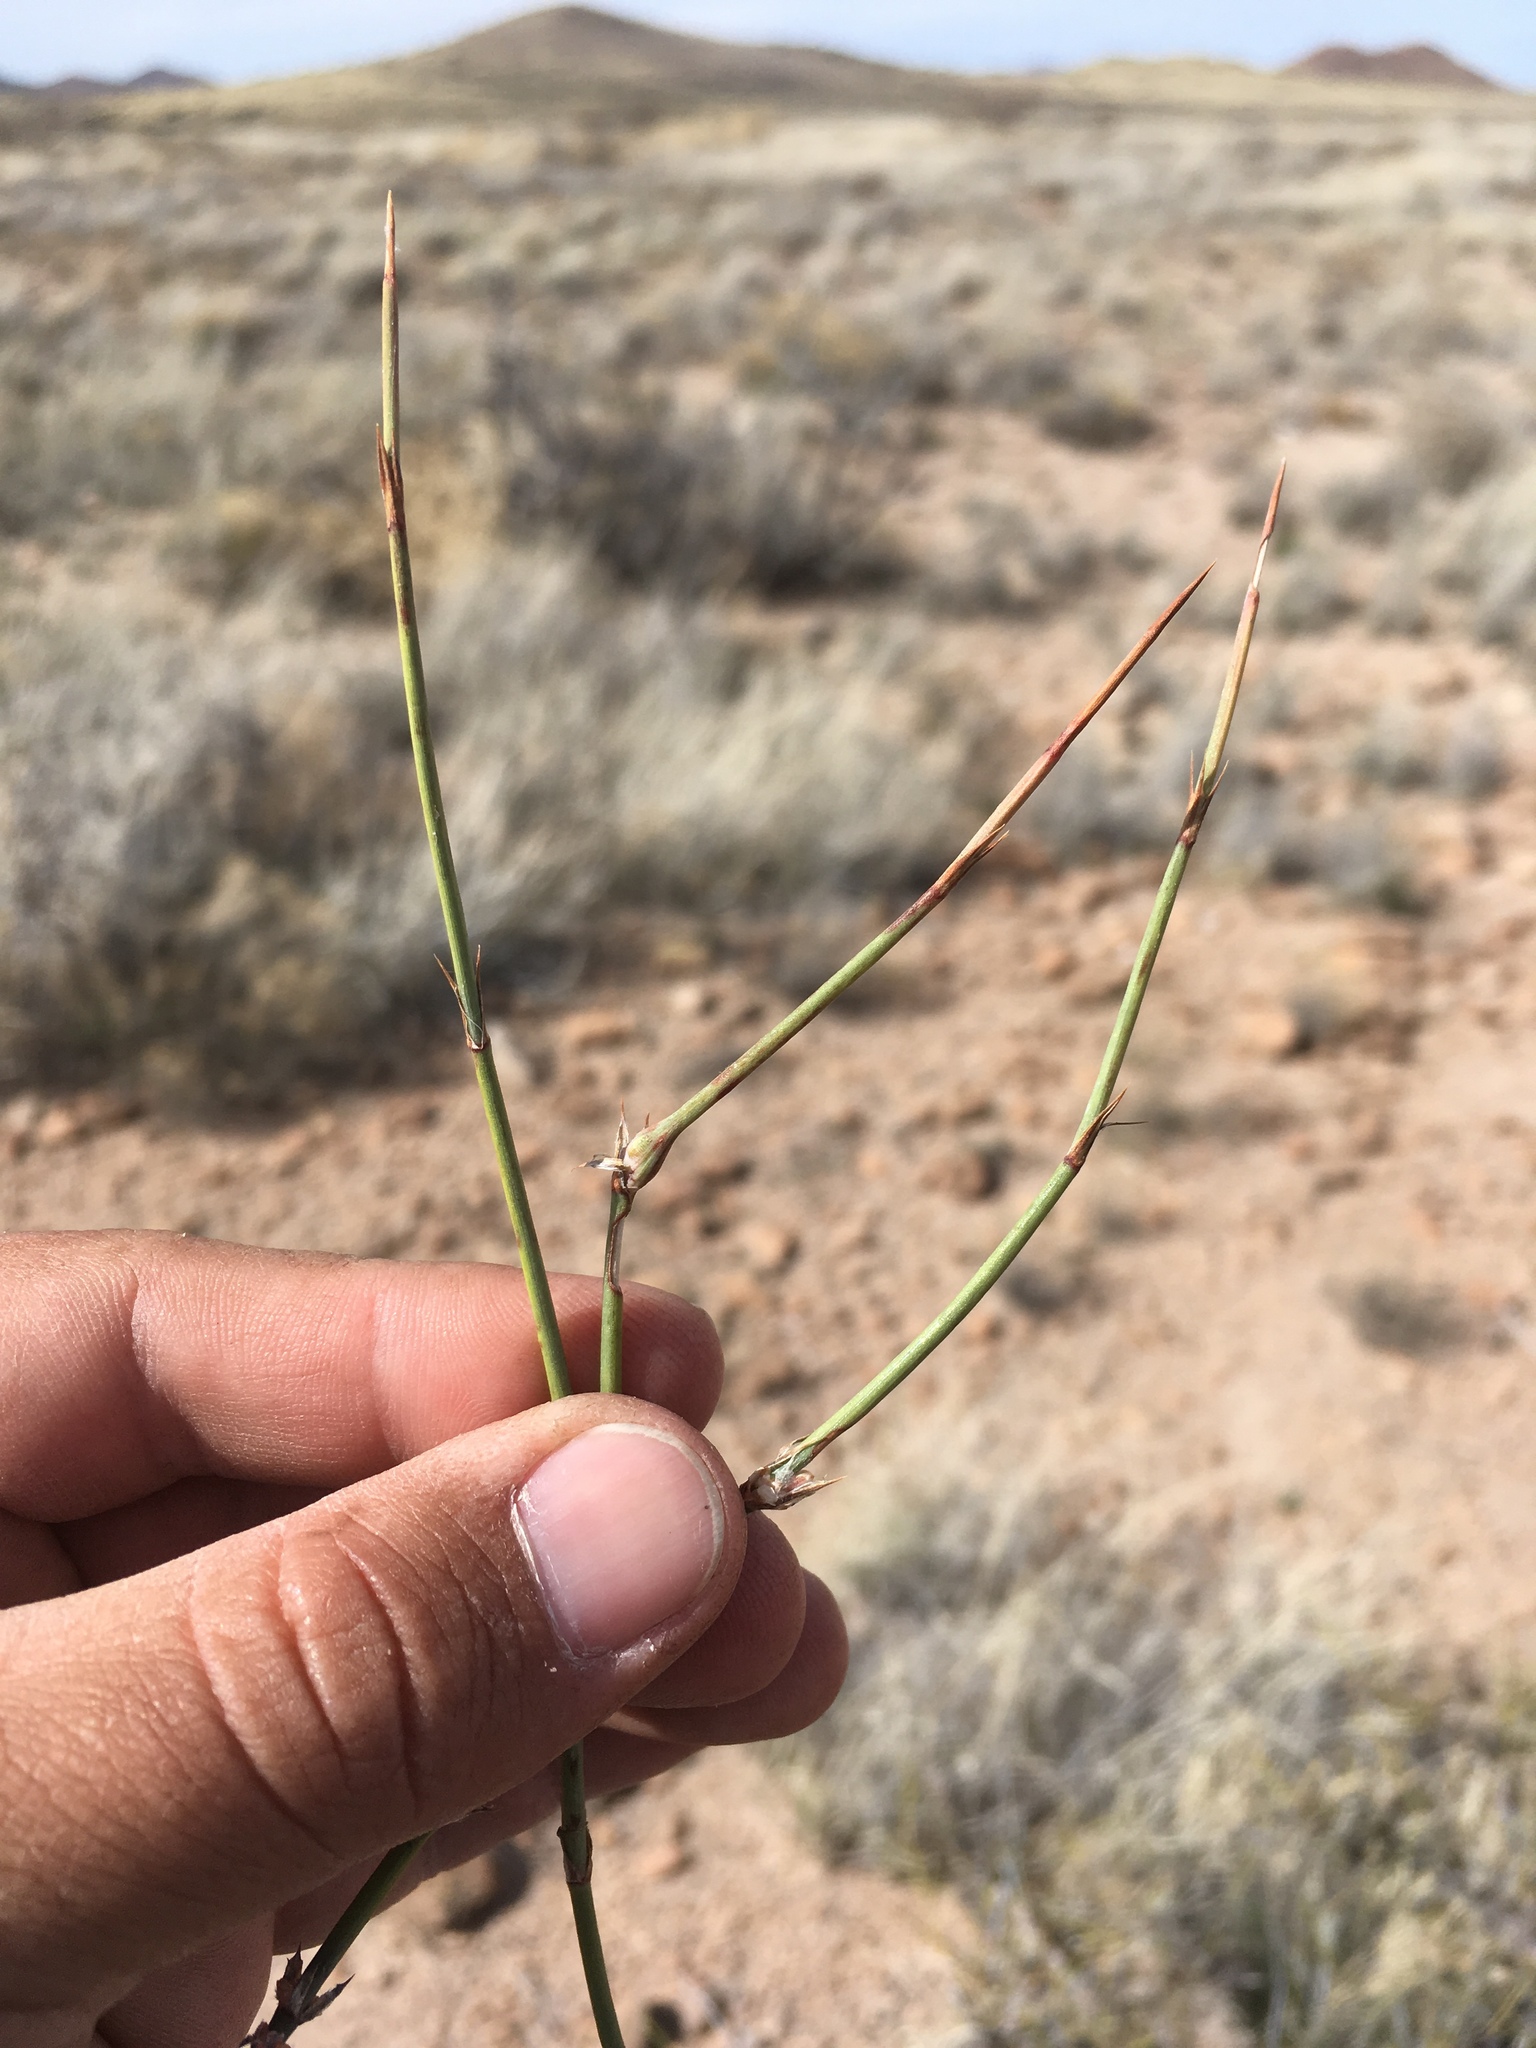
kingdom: Plantae
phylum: Tracheophyta
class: Gnetopsida
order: Ephedrales
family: Ephedraceae
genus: Ephedra
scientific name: Ephedra trifurca
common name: Mexican-tea
